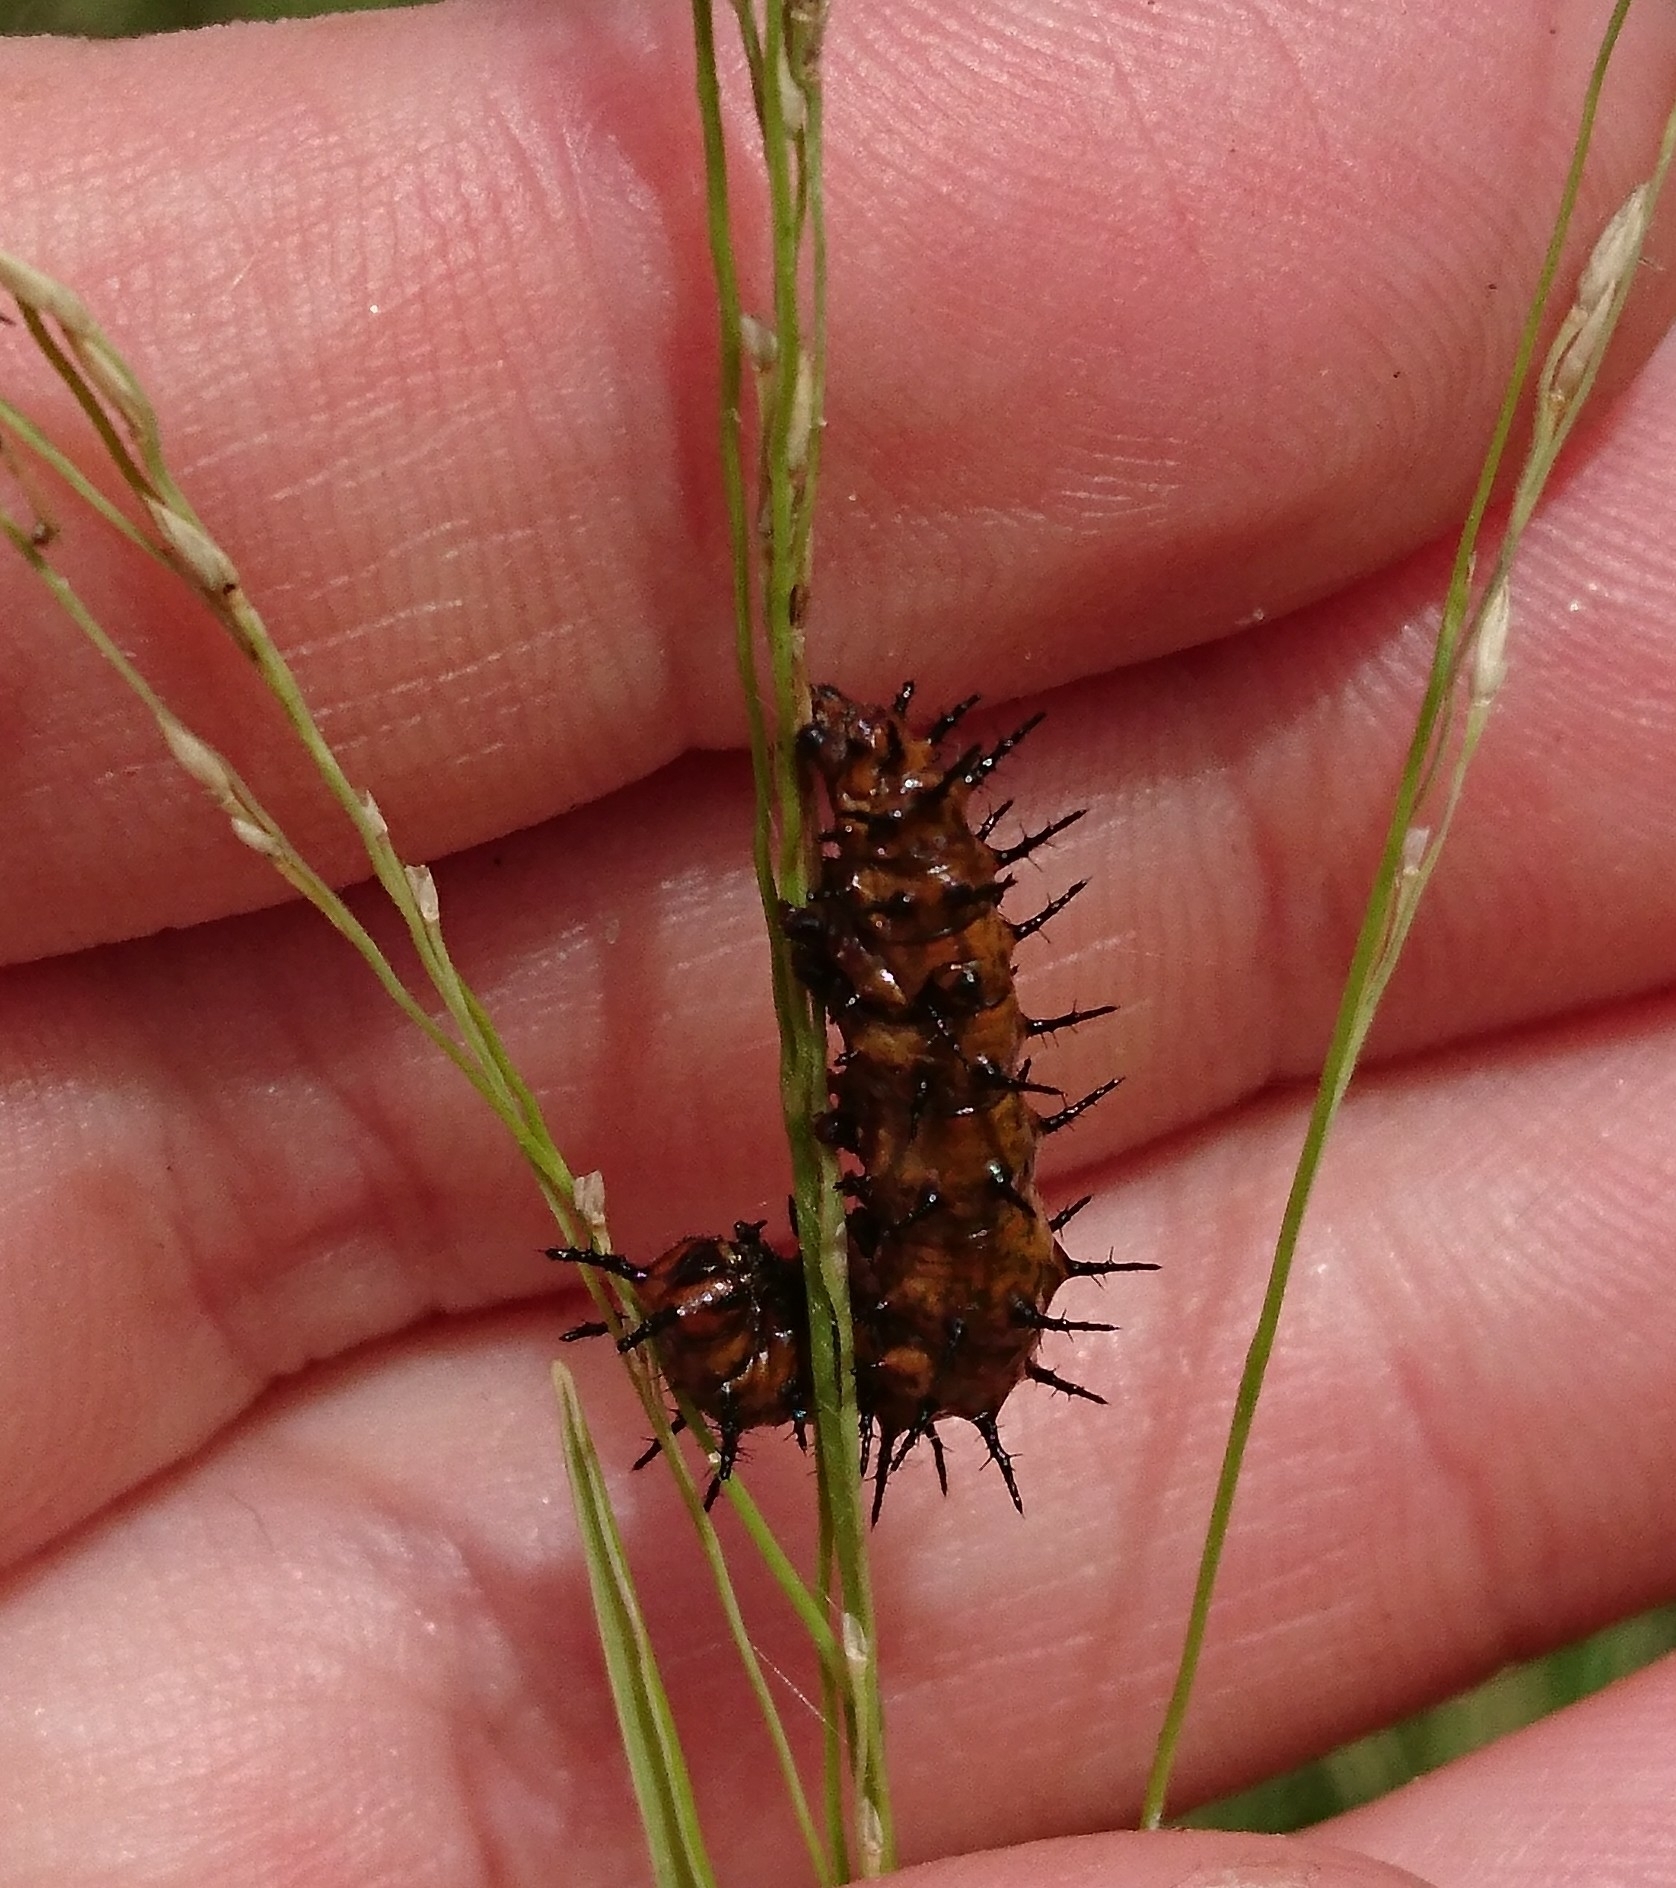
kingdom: Animalia
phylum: Arthropoda
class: Insecta
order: Lepidoptera
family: Nymphalidae
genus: Dione
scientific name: Dione vanillae
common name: Gulf fritillary
